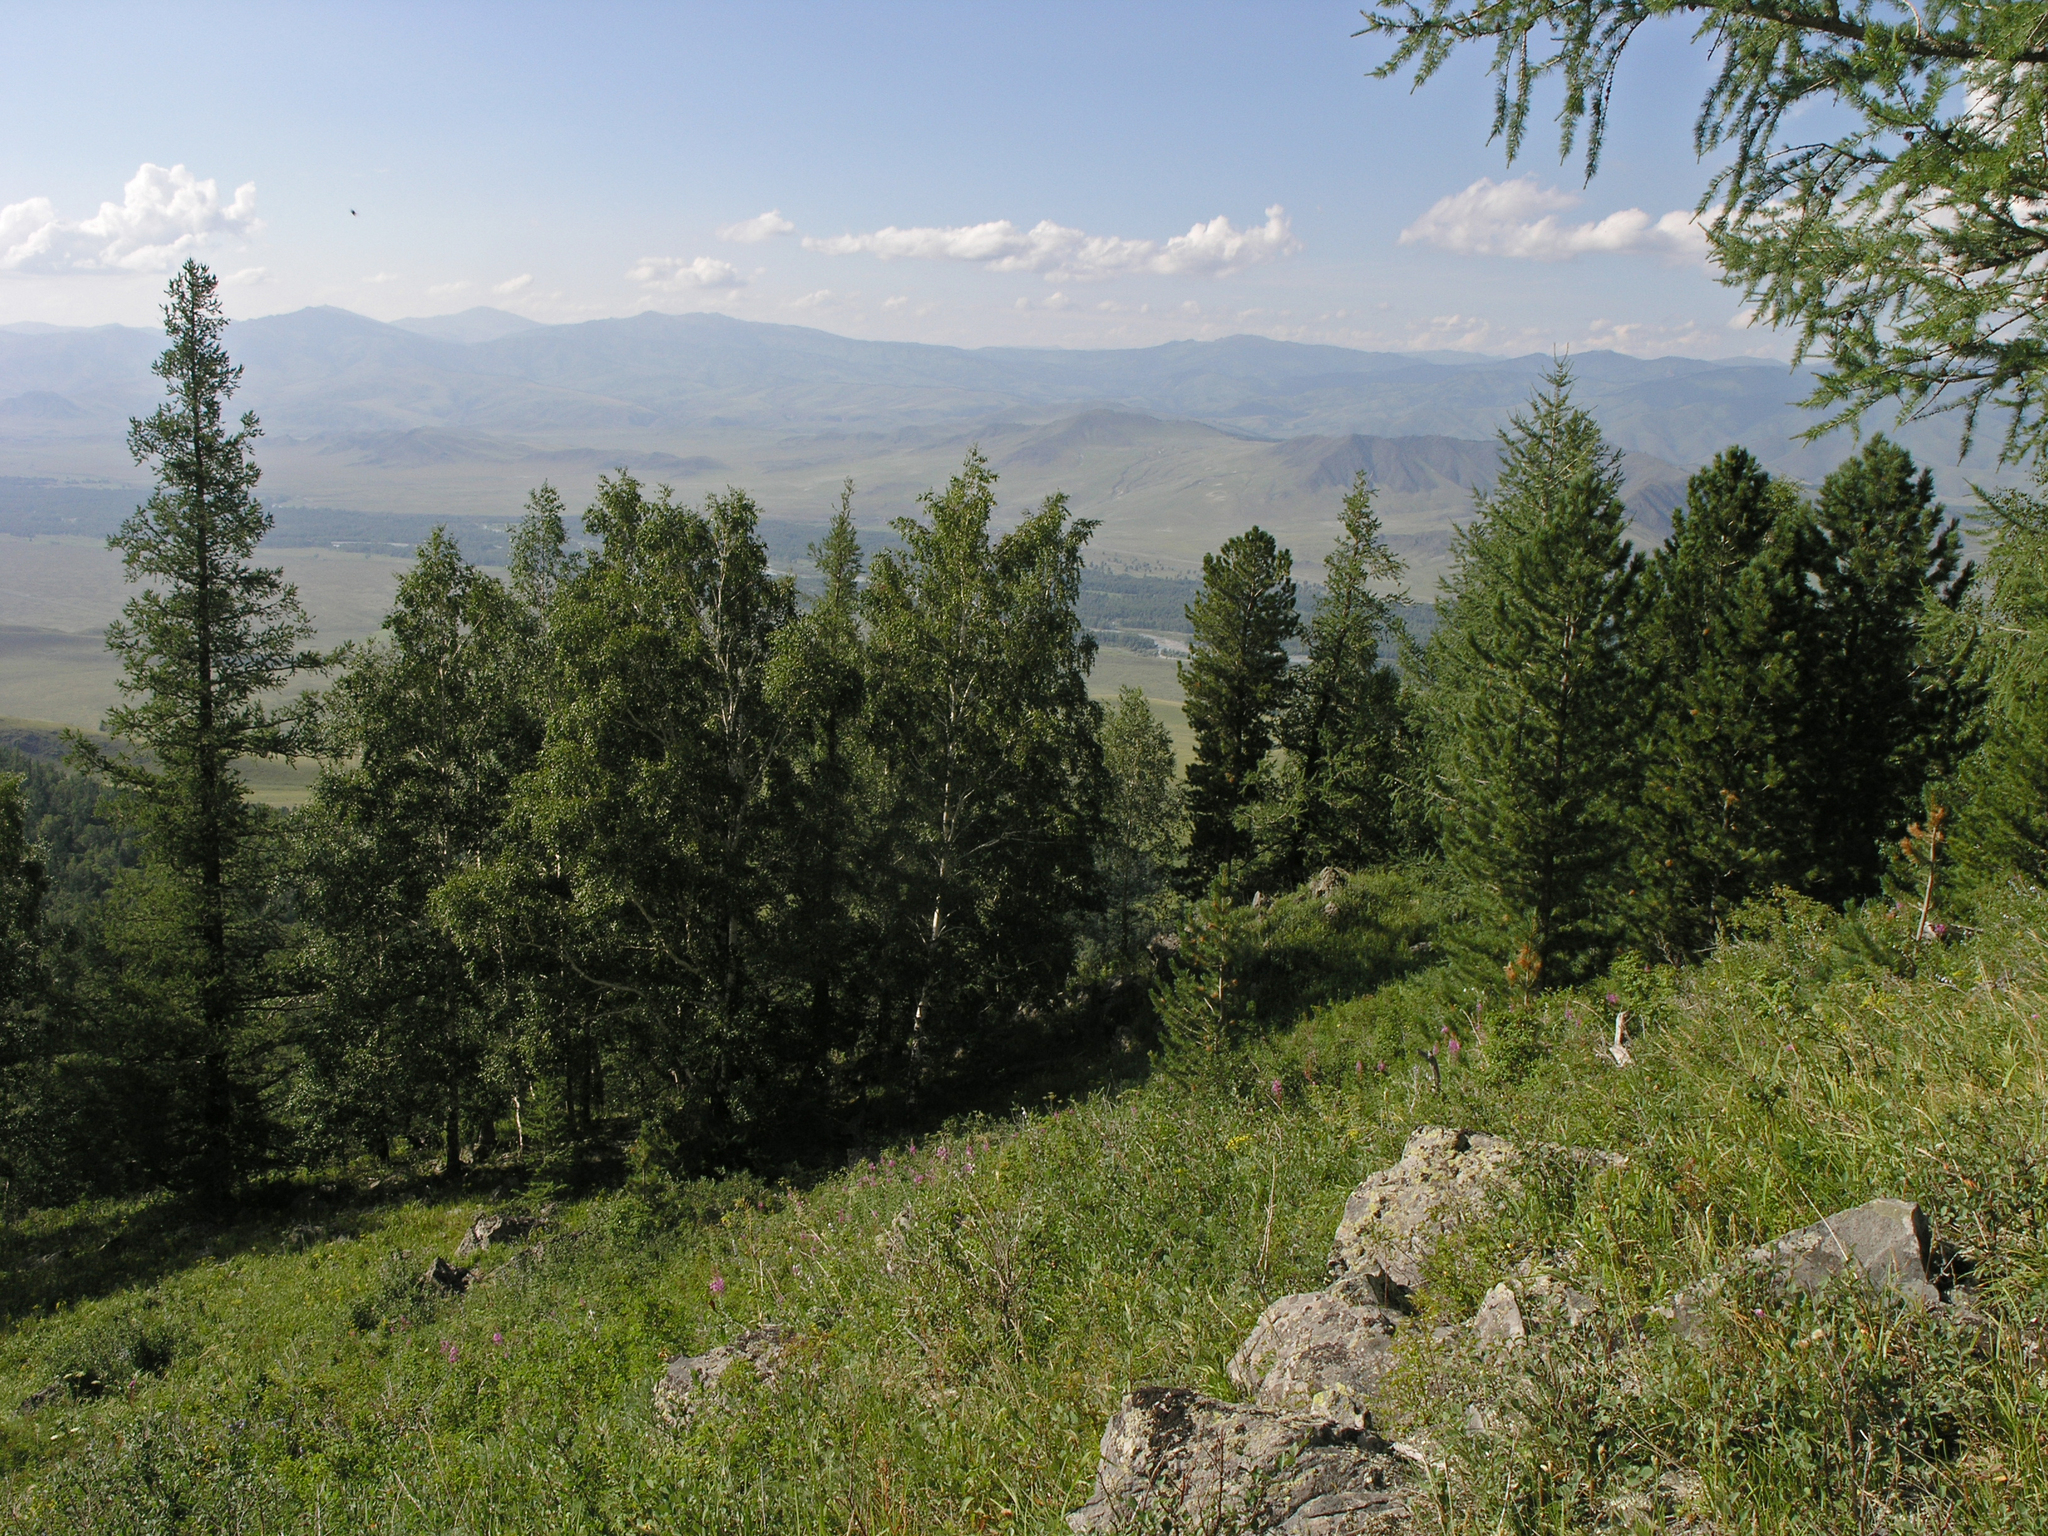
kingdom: Plantae
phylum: Tracheophyta
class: Pinopsida
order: Pinales
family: Pinaceae
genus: Pinus
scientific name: Pinus sibirica
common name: Siberian pine
